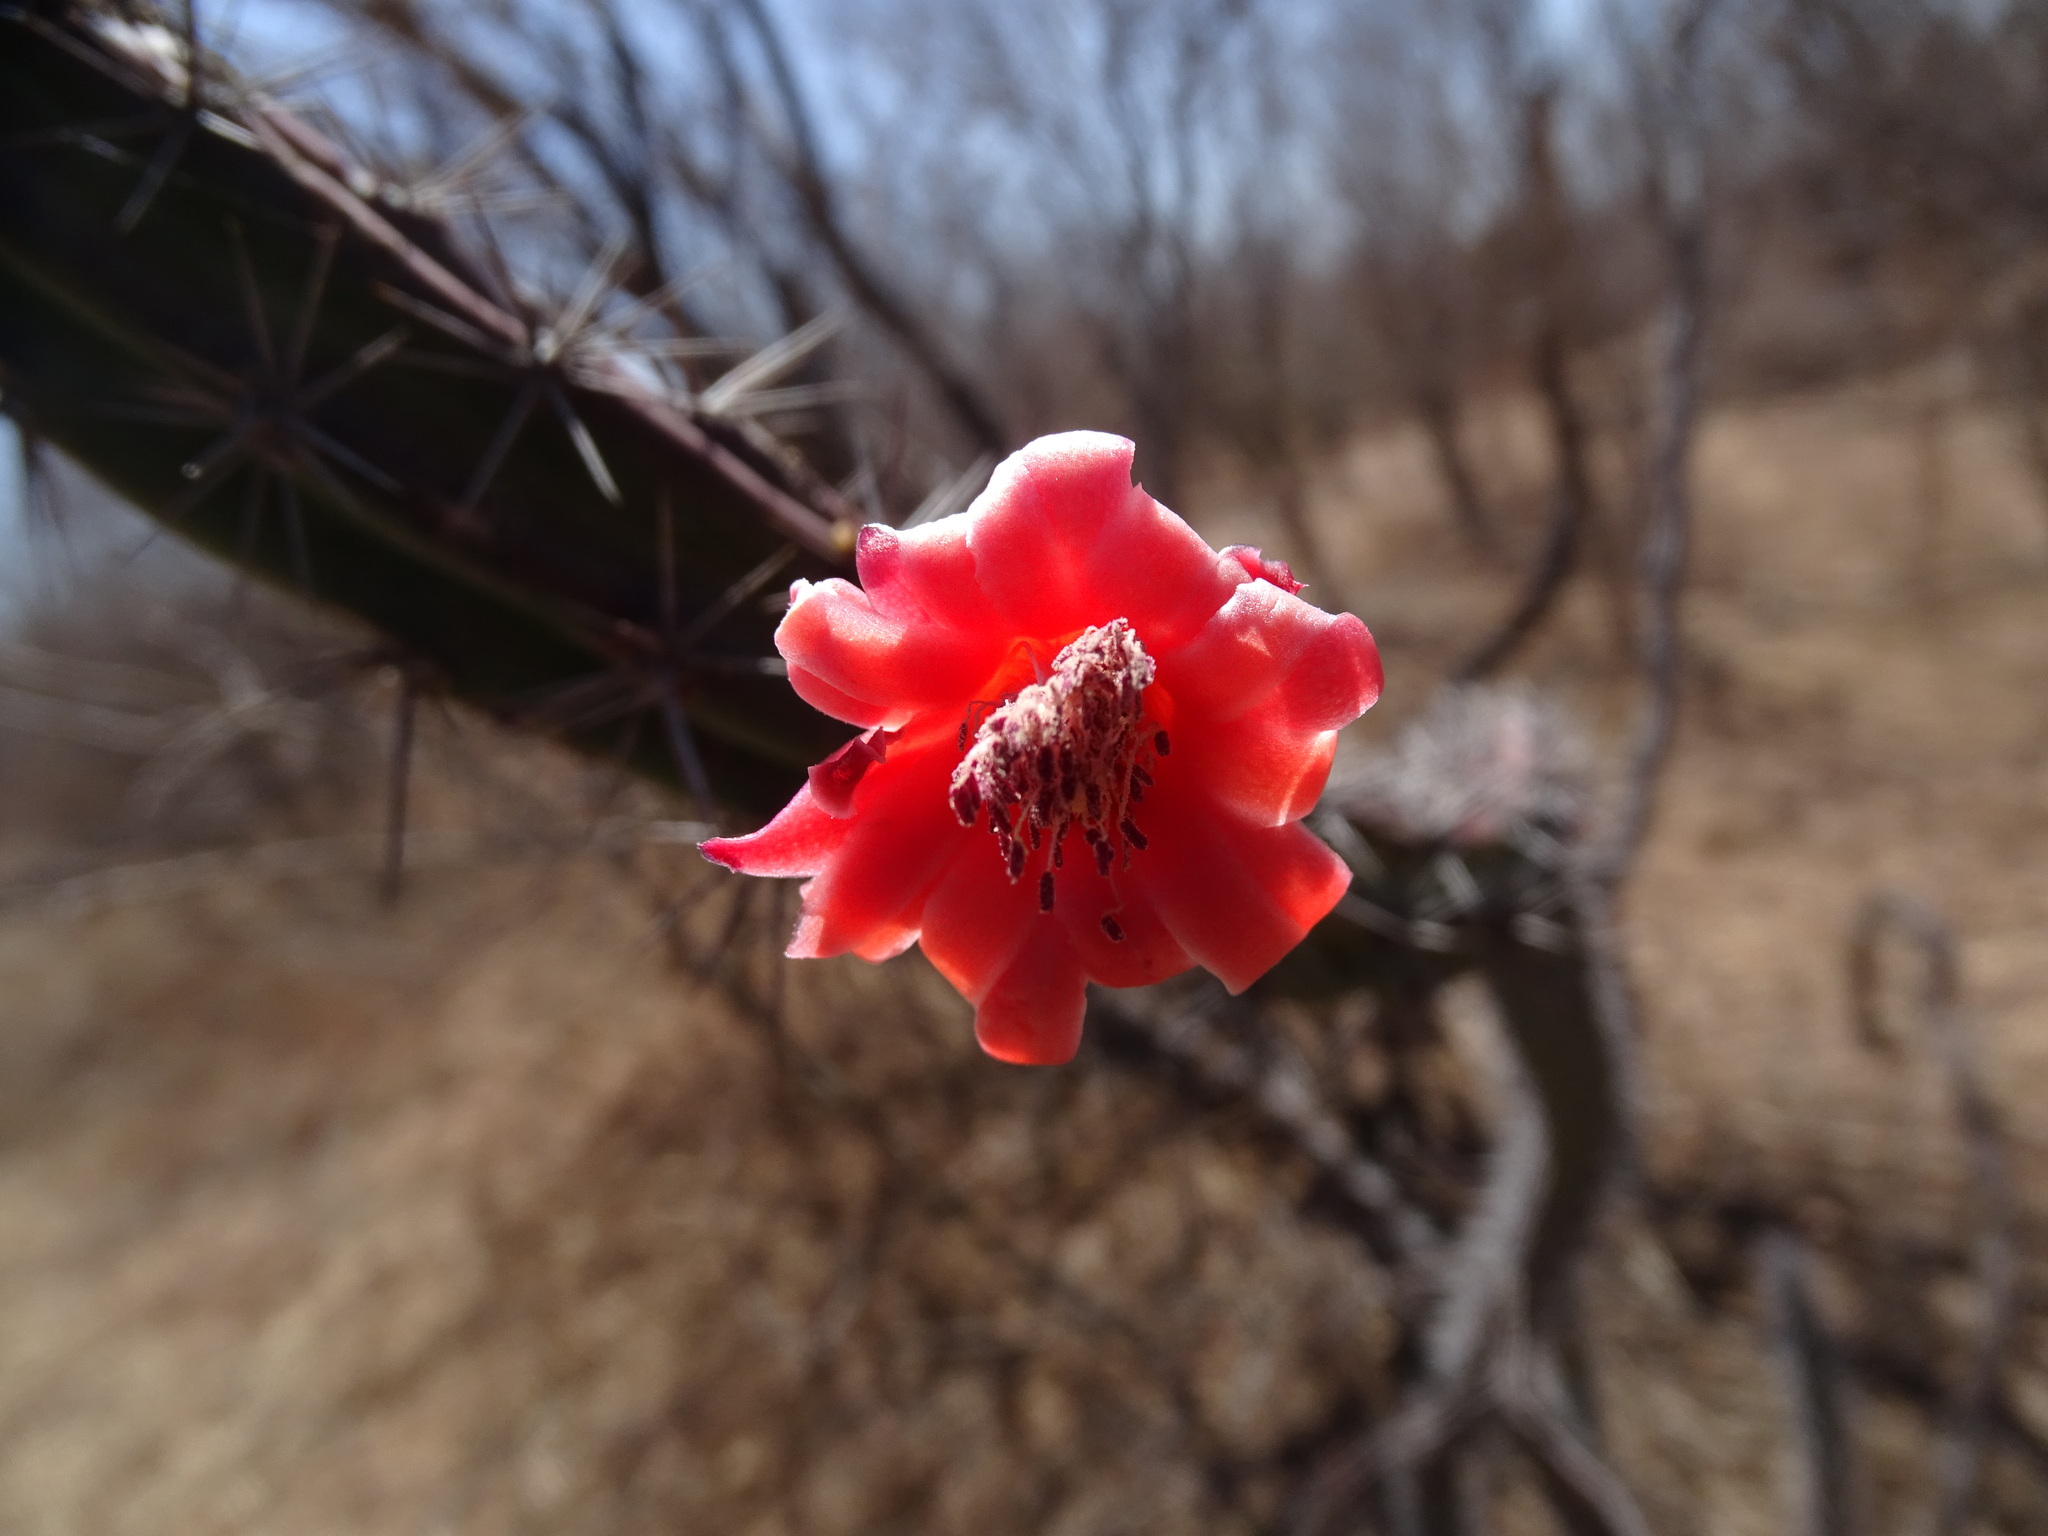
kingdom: Plantae
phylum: Tracheophyta
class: Magnoliopsida
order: Caryophyllales
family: Cactaceae
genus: Stenocereus
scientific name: Stenocereus alamosensis
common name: Octopus cactus
